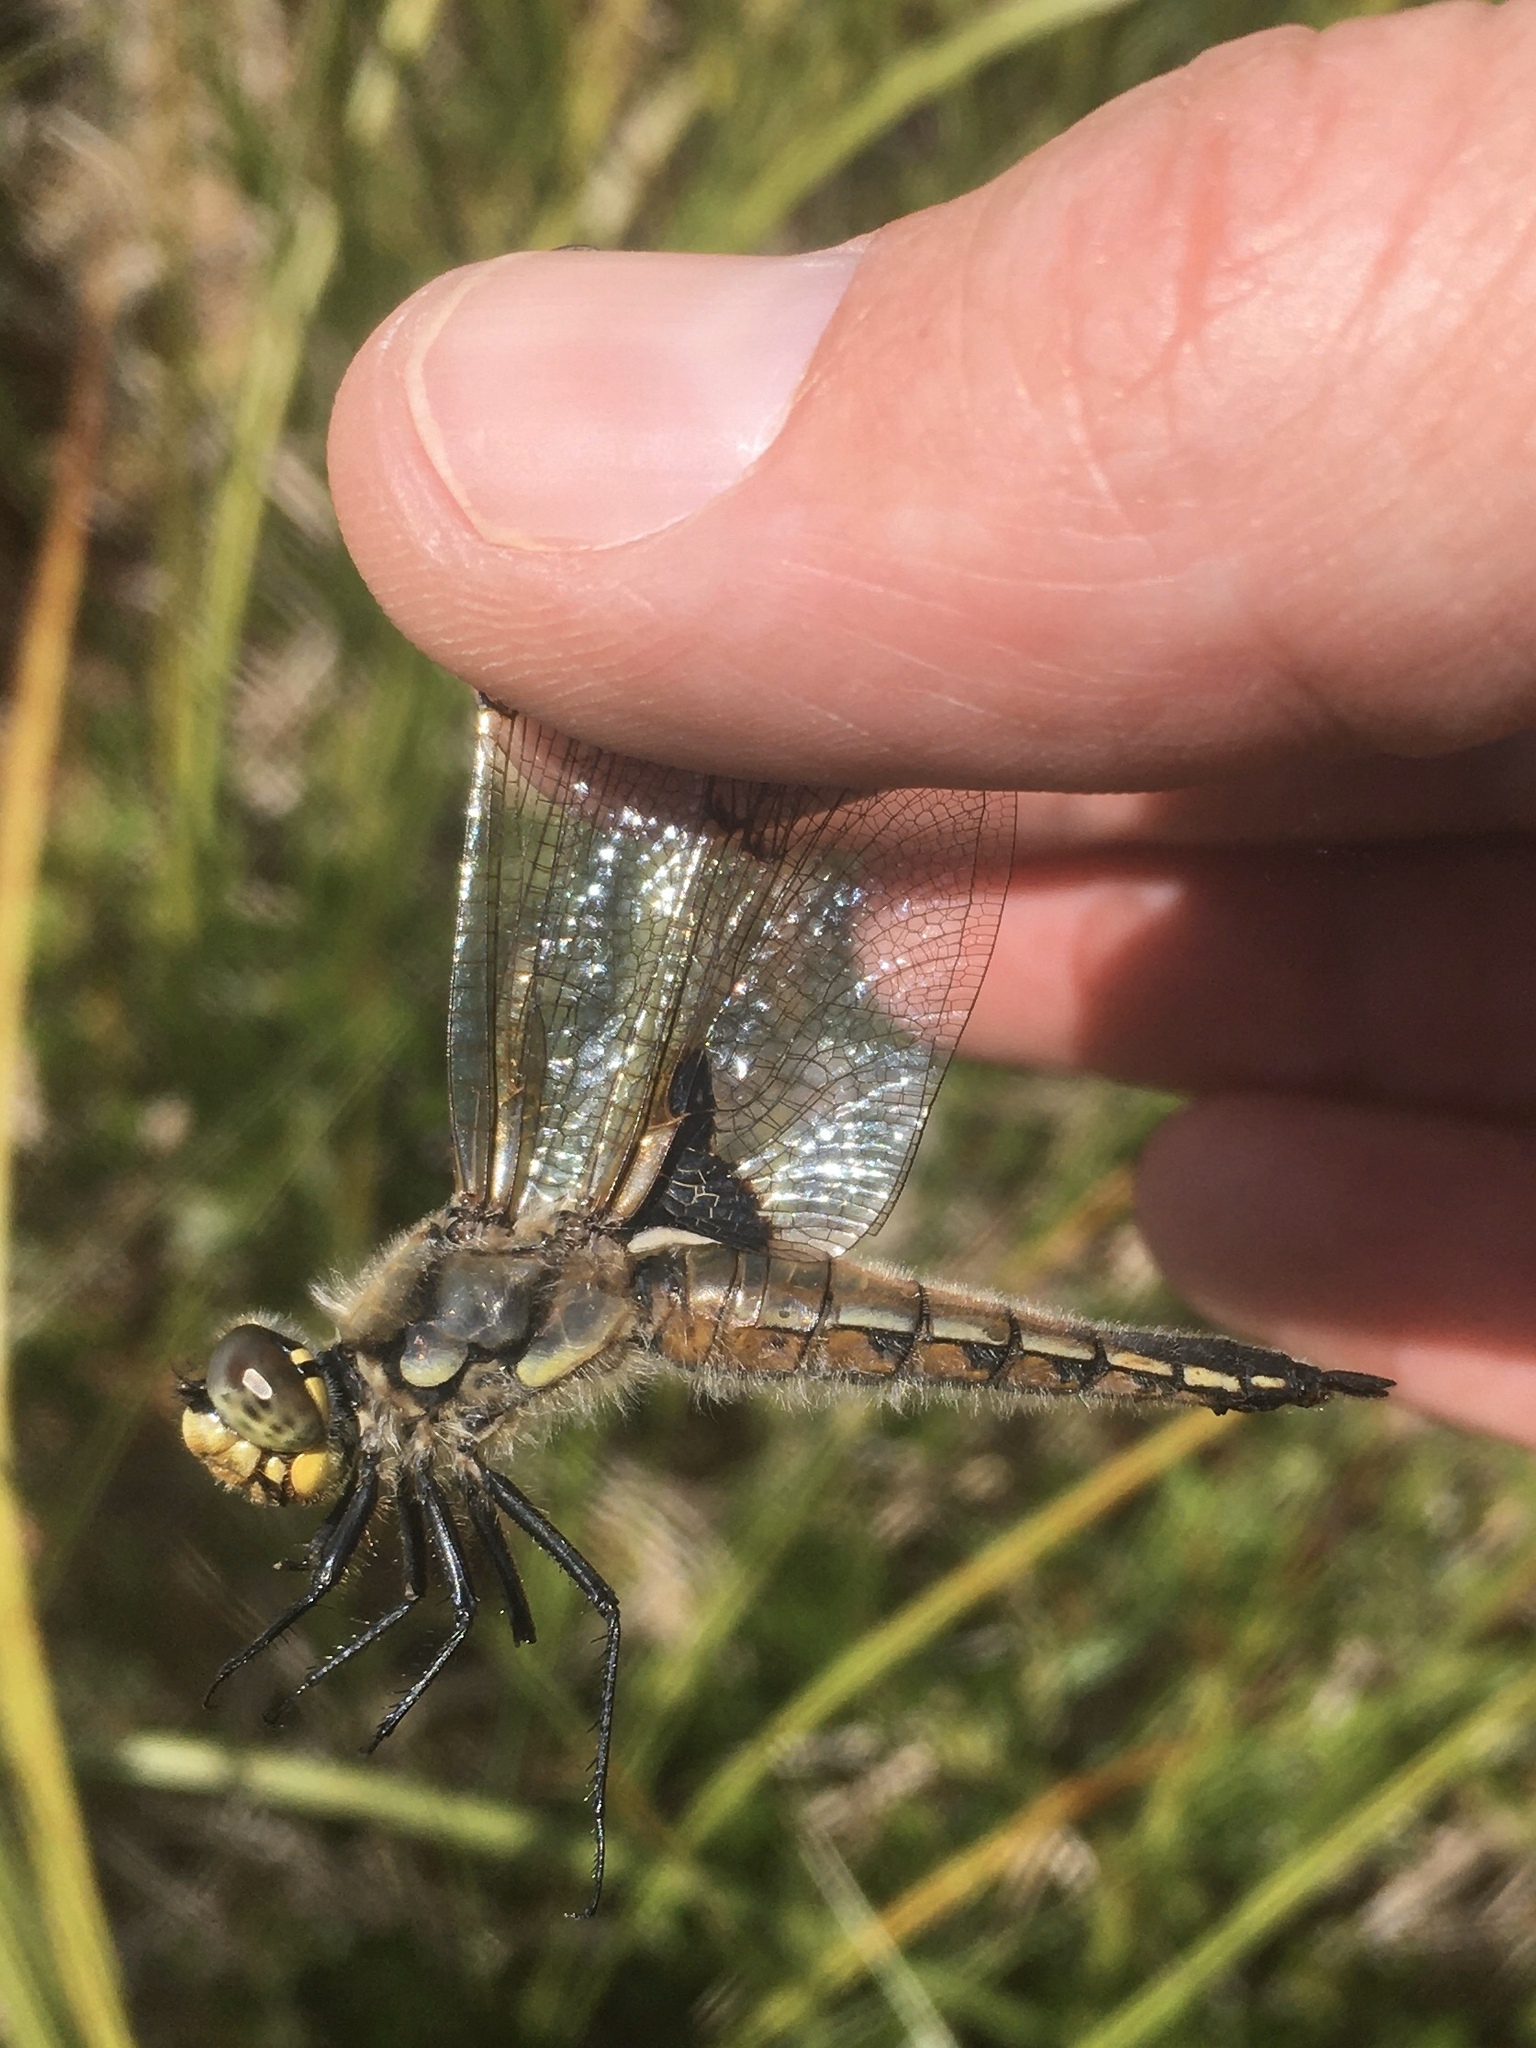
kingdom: Animalia
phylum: Arthropoda
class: Insecta
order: Odonata
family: Libellulidae
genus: Libellula
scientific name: Libellula quadrimaculata
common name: Four-spotted chaser
